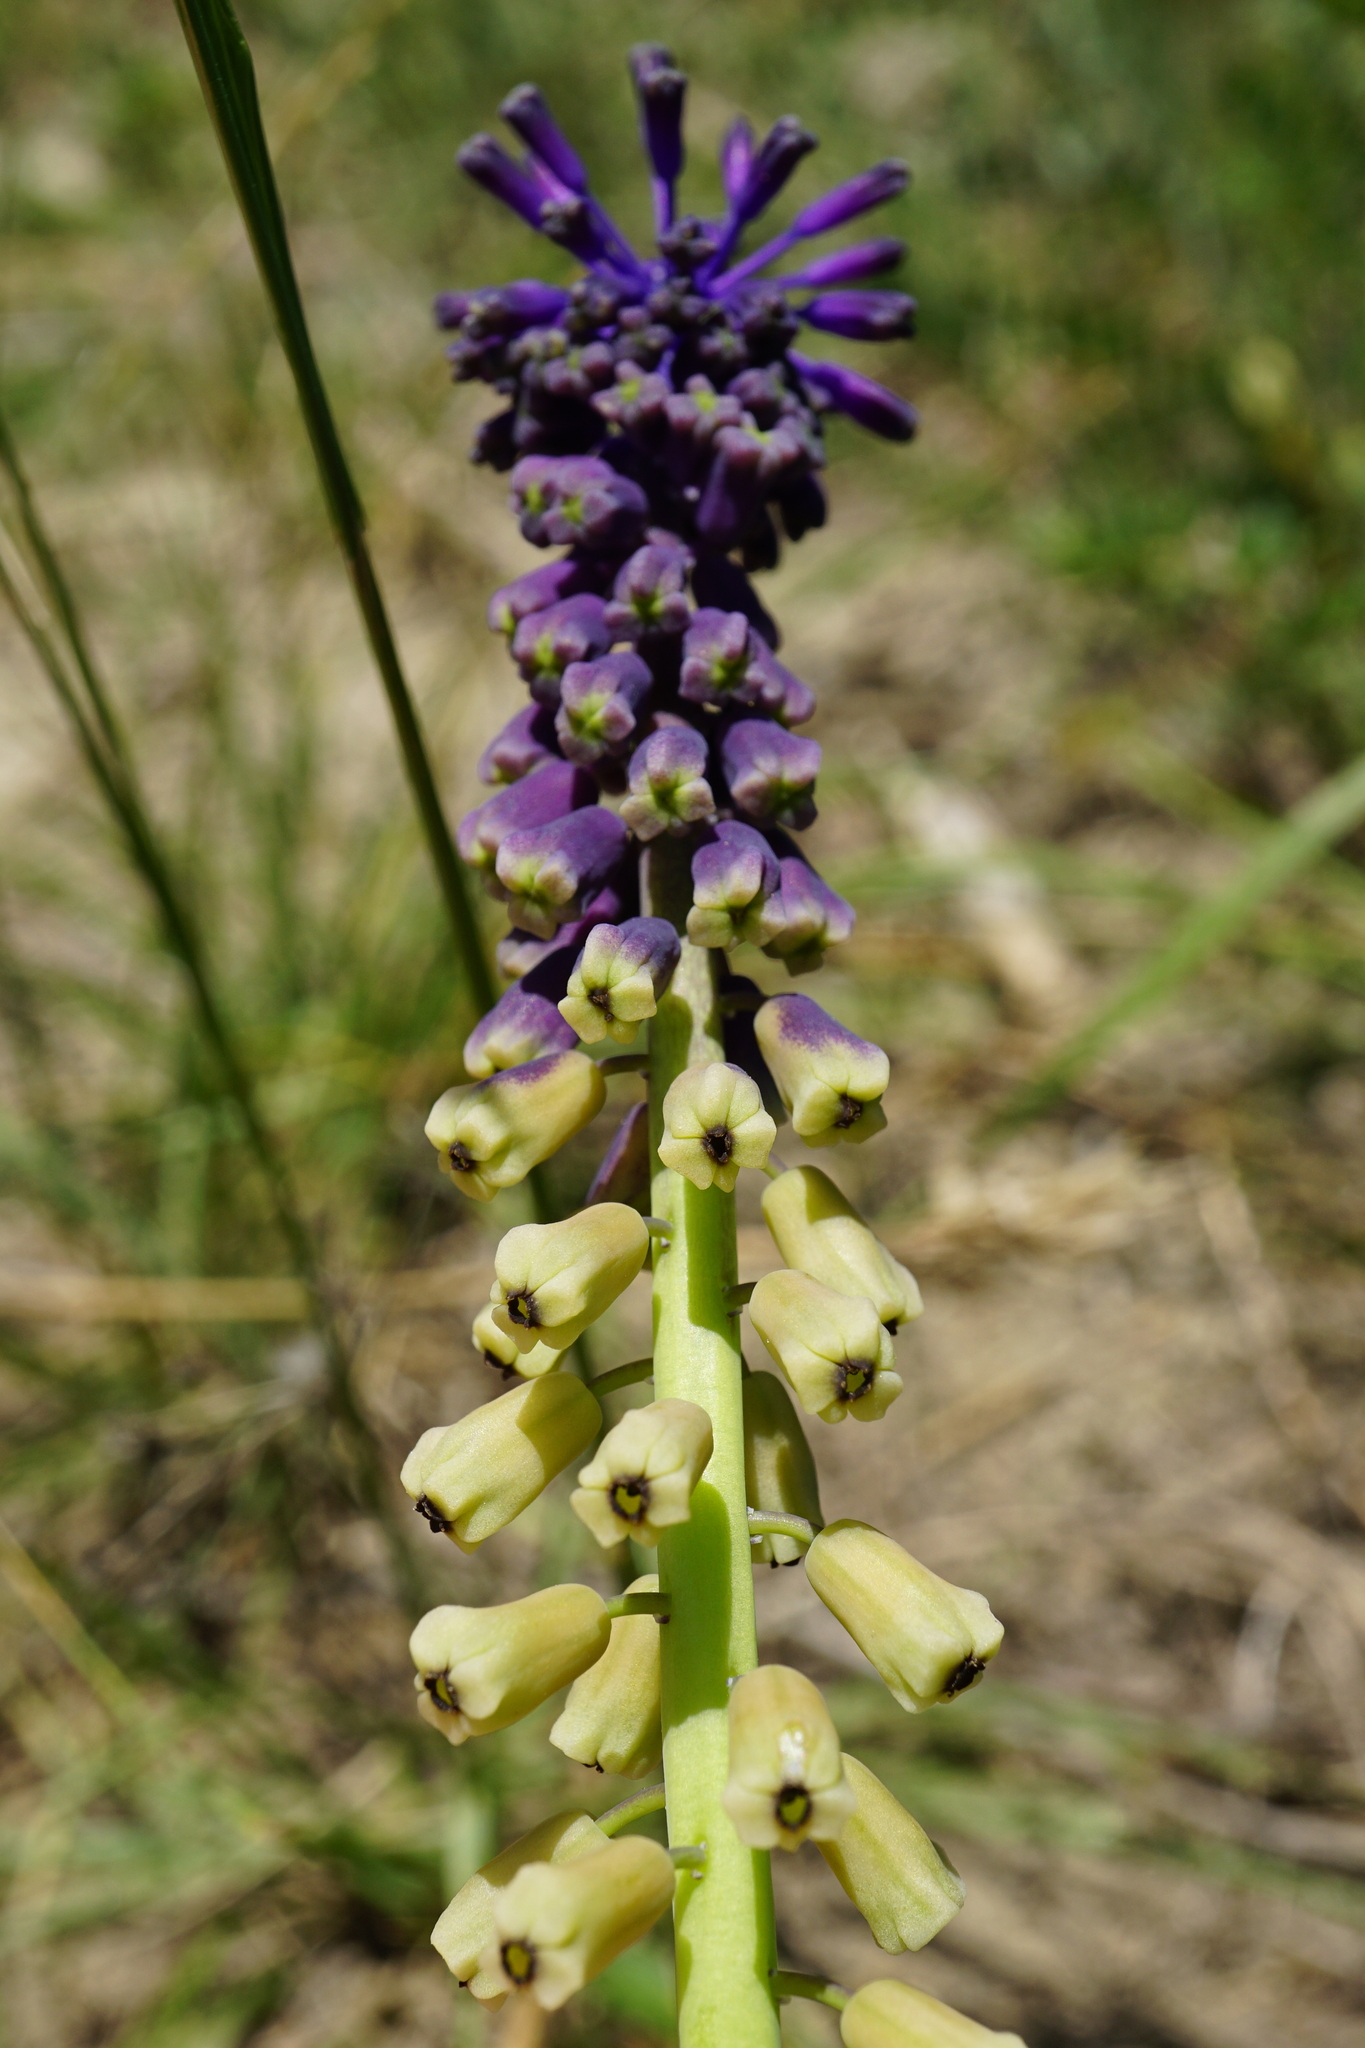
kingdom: Plantae
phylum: Tracheophyta
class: Liliopsida
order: Asparagales
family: Asparagaceae
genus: Muscari
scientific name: Muscari tenuiflorum
